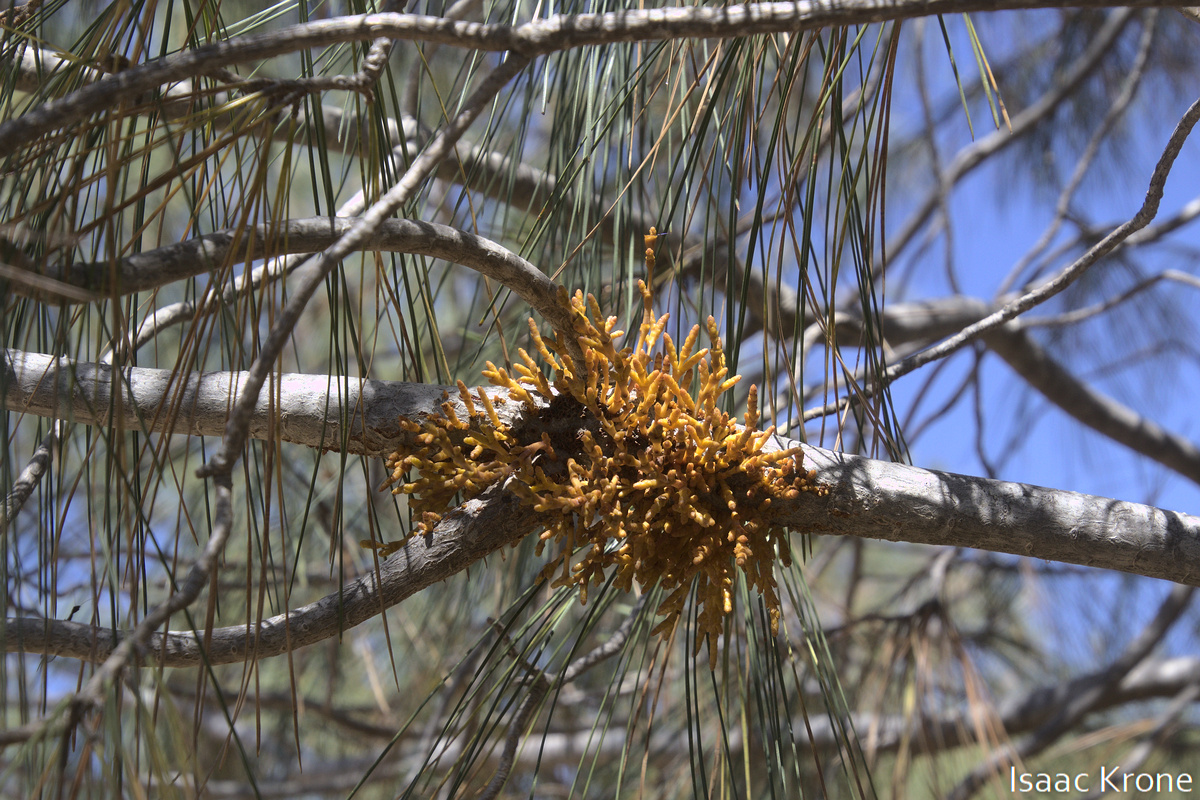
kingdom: Plantae
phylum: Tracheophyta
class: Magnoliopsida
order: Santalales
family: Viscaceae
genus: Arceuthobium
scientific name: Arceuthobium campylopodum
